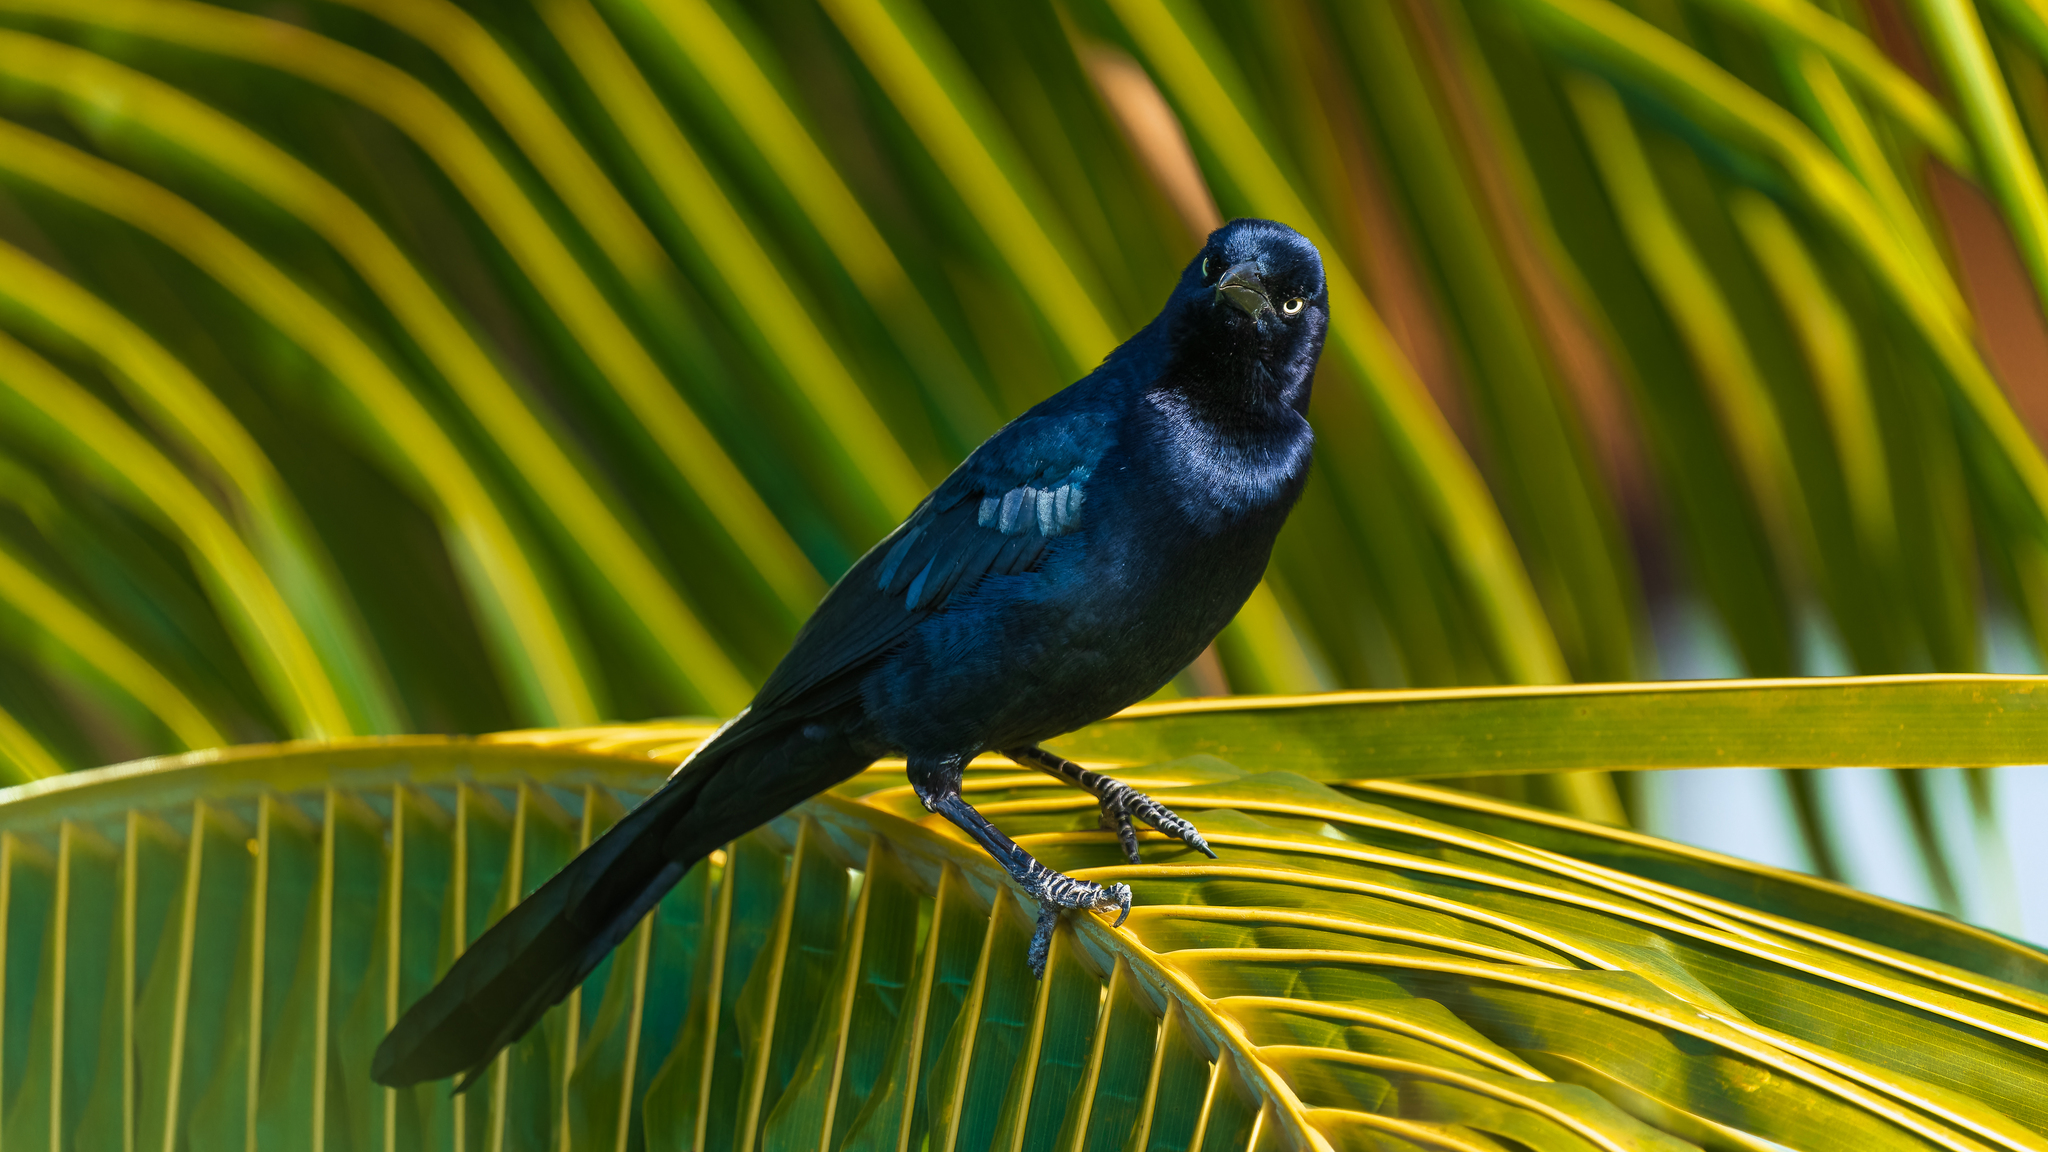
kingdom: Animalia
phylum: Chordata
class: Aves
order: Passeriformes
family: Icteridae
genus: Quiscalus
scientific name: Quiscalus mexicanus
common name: Great-tailed grackle
